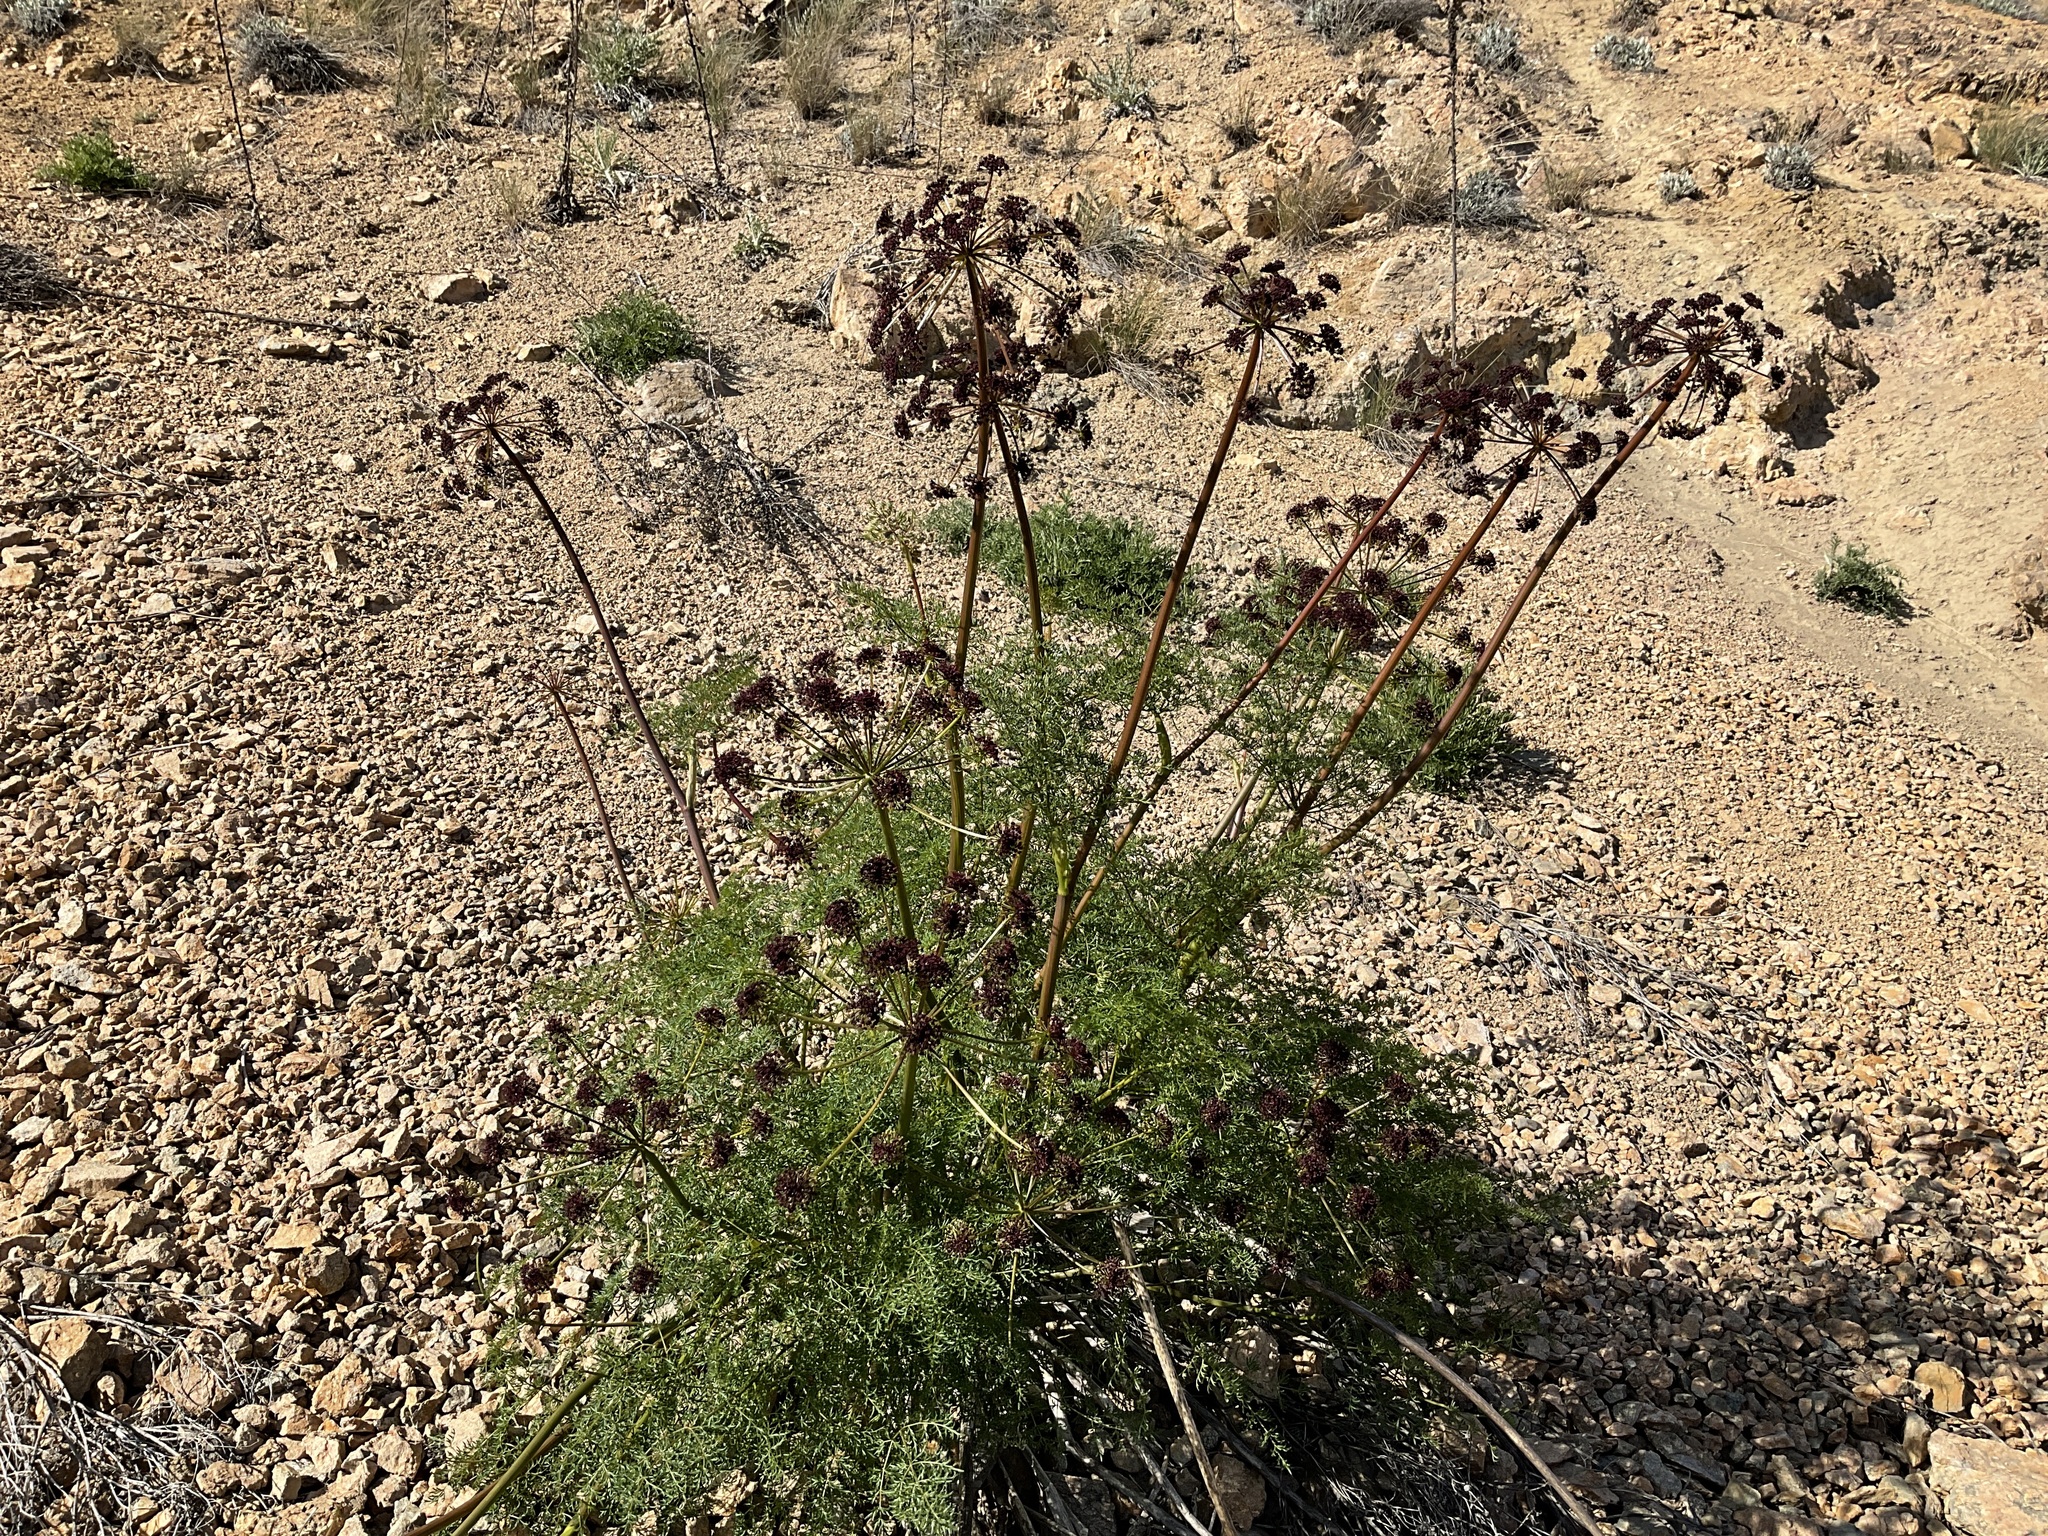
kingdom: Plantae
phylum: Tracheophyta
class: Magnoliopsida
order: Apiales
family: Apiaceae
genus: Lomatium
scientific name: Lomatium multifidum
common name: Carrot-leaved biscuitroot
